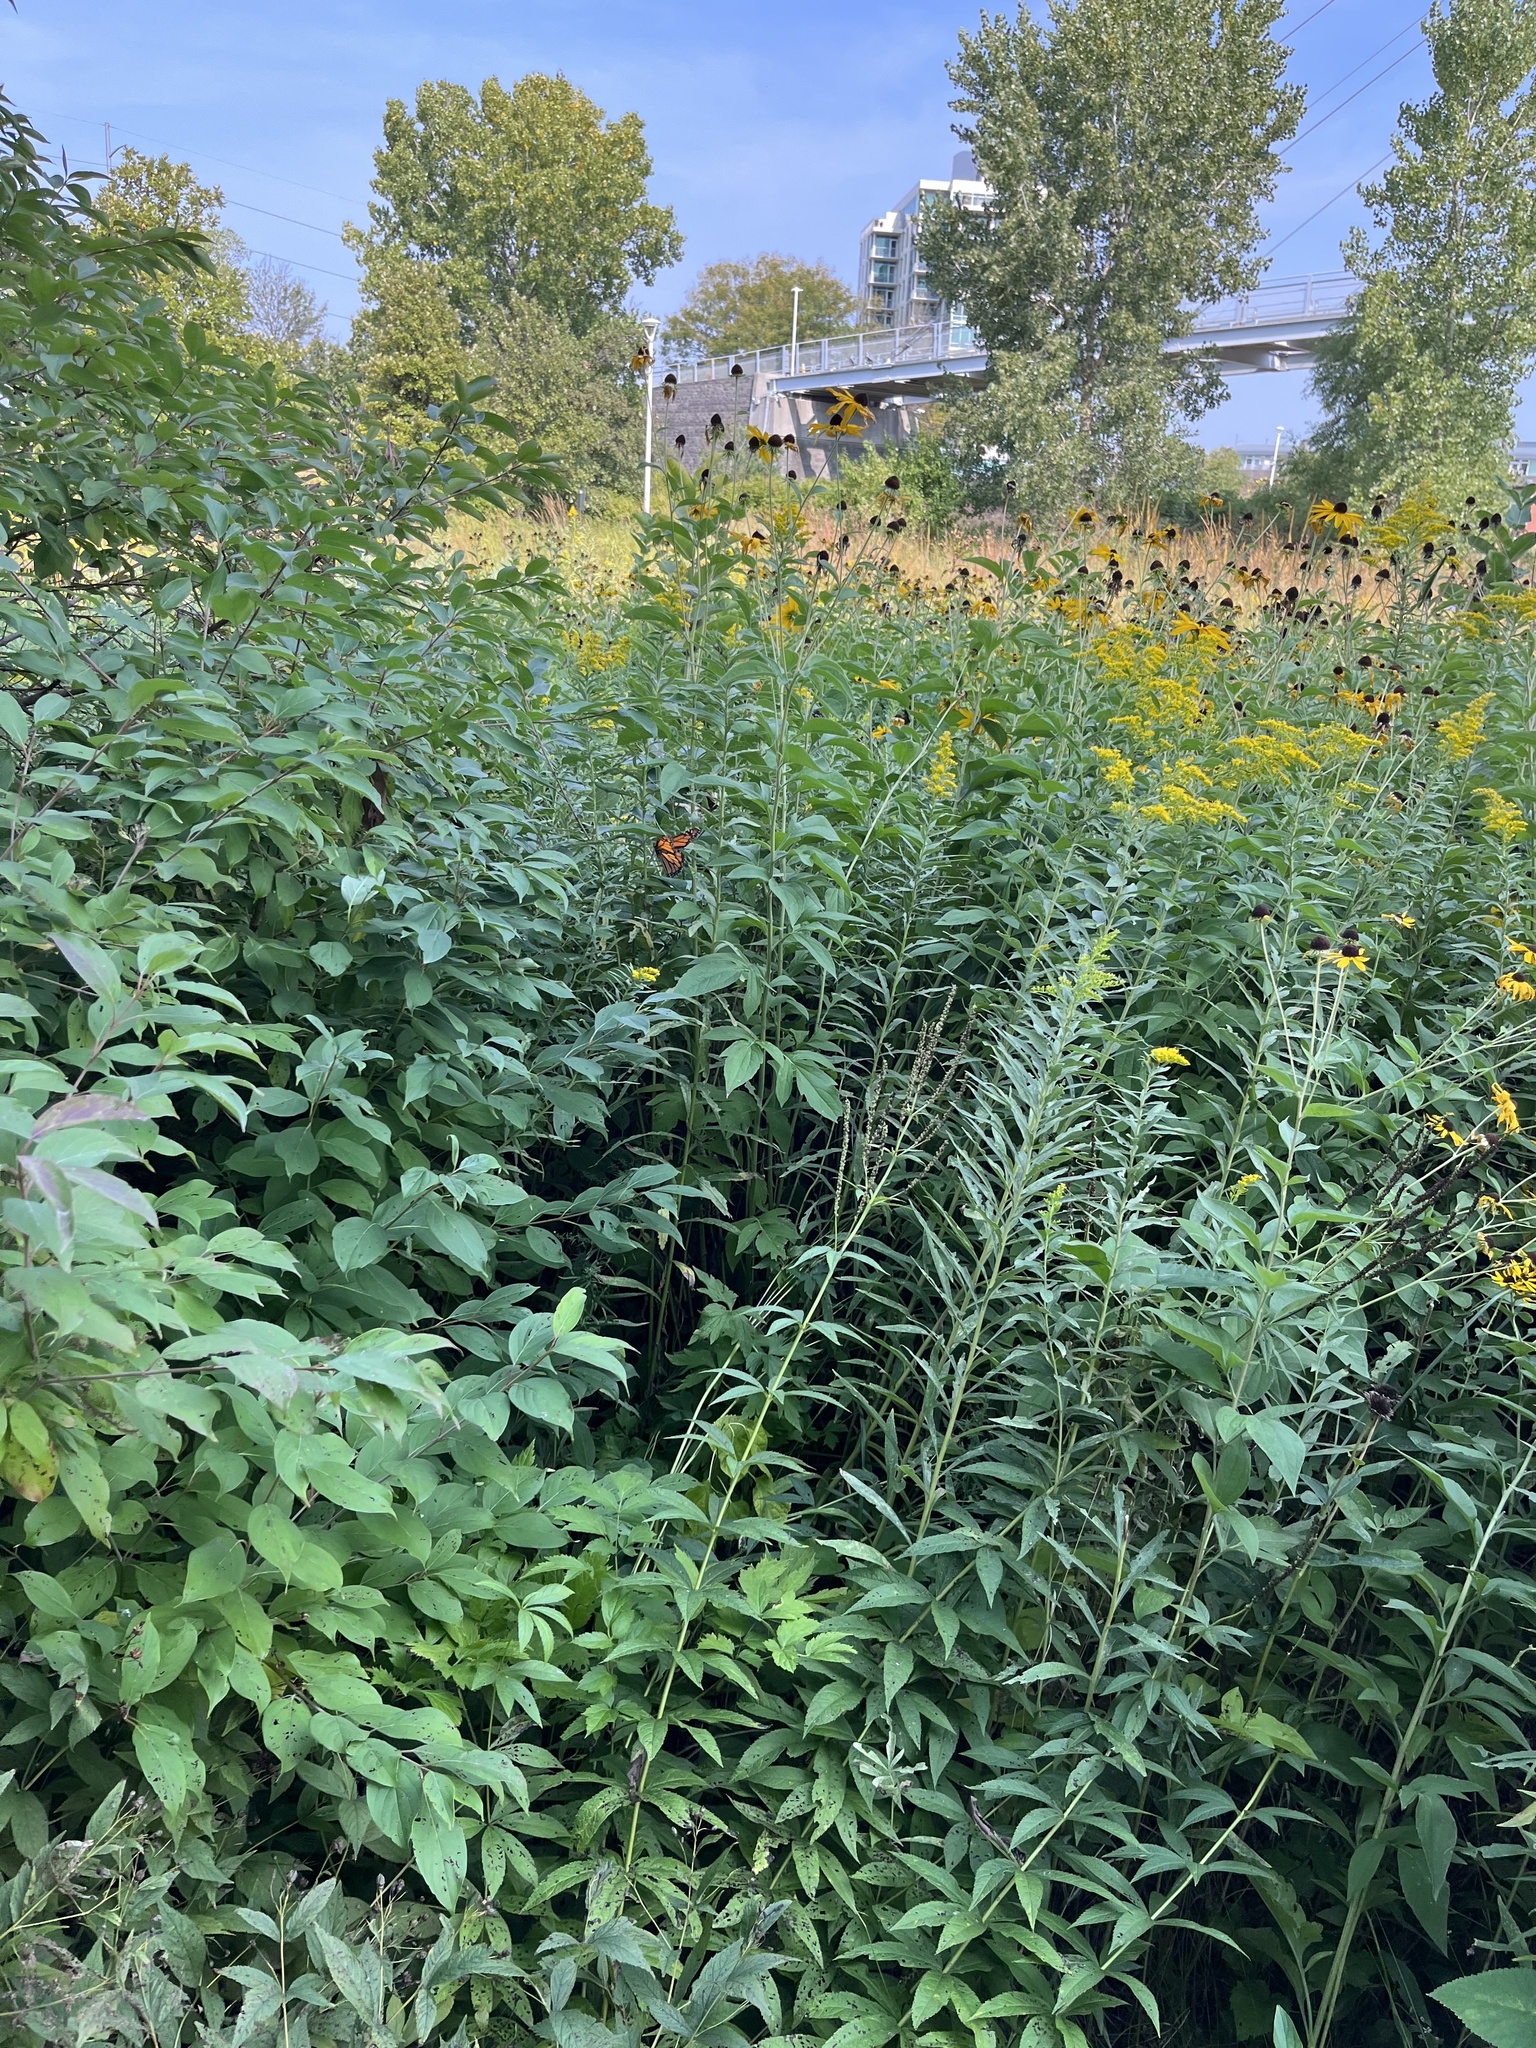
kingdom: Animalia
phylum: Arthropoda
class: Insecta
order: Lepidoptera
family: Nymphalidae
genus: Danaus
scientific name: Danaus plexippus
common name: Monarch
